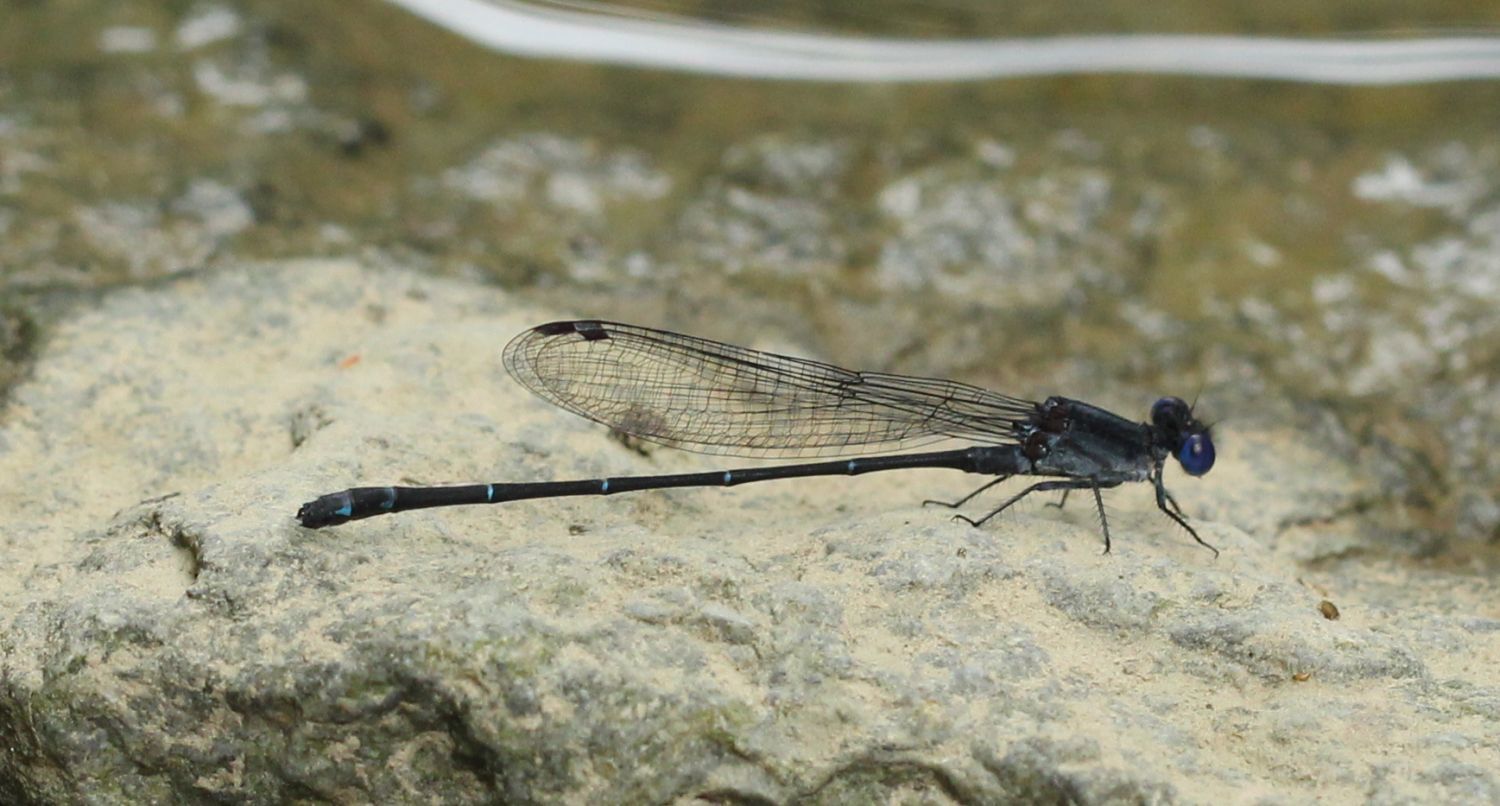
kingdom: Animalia
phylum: Arthropoda
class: Insecta
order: Odonata
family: Coenagrionidae
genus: Argia
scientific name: Argia translata
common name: Dusky dancer
